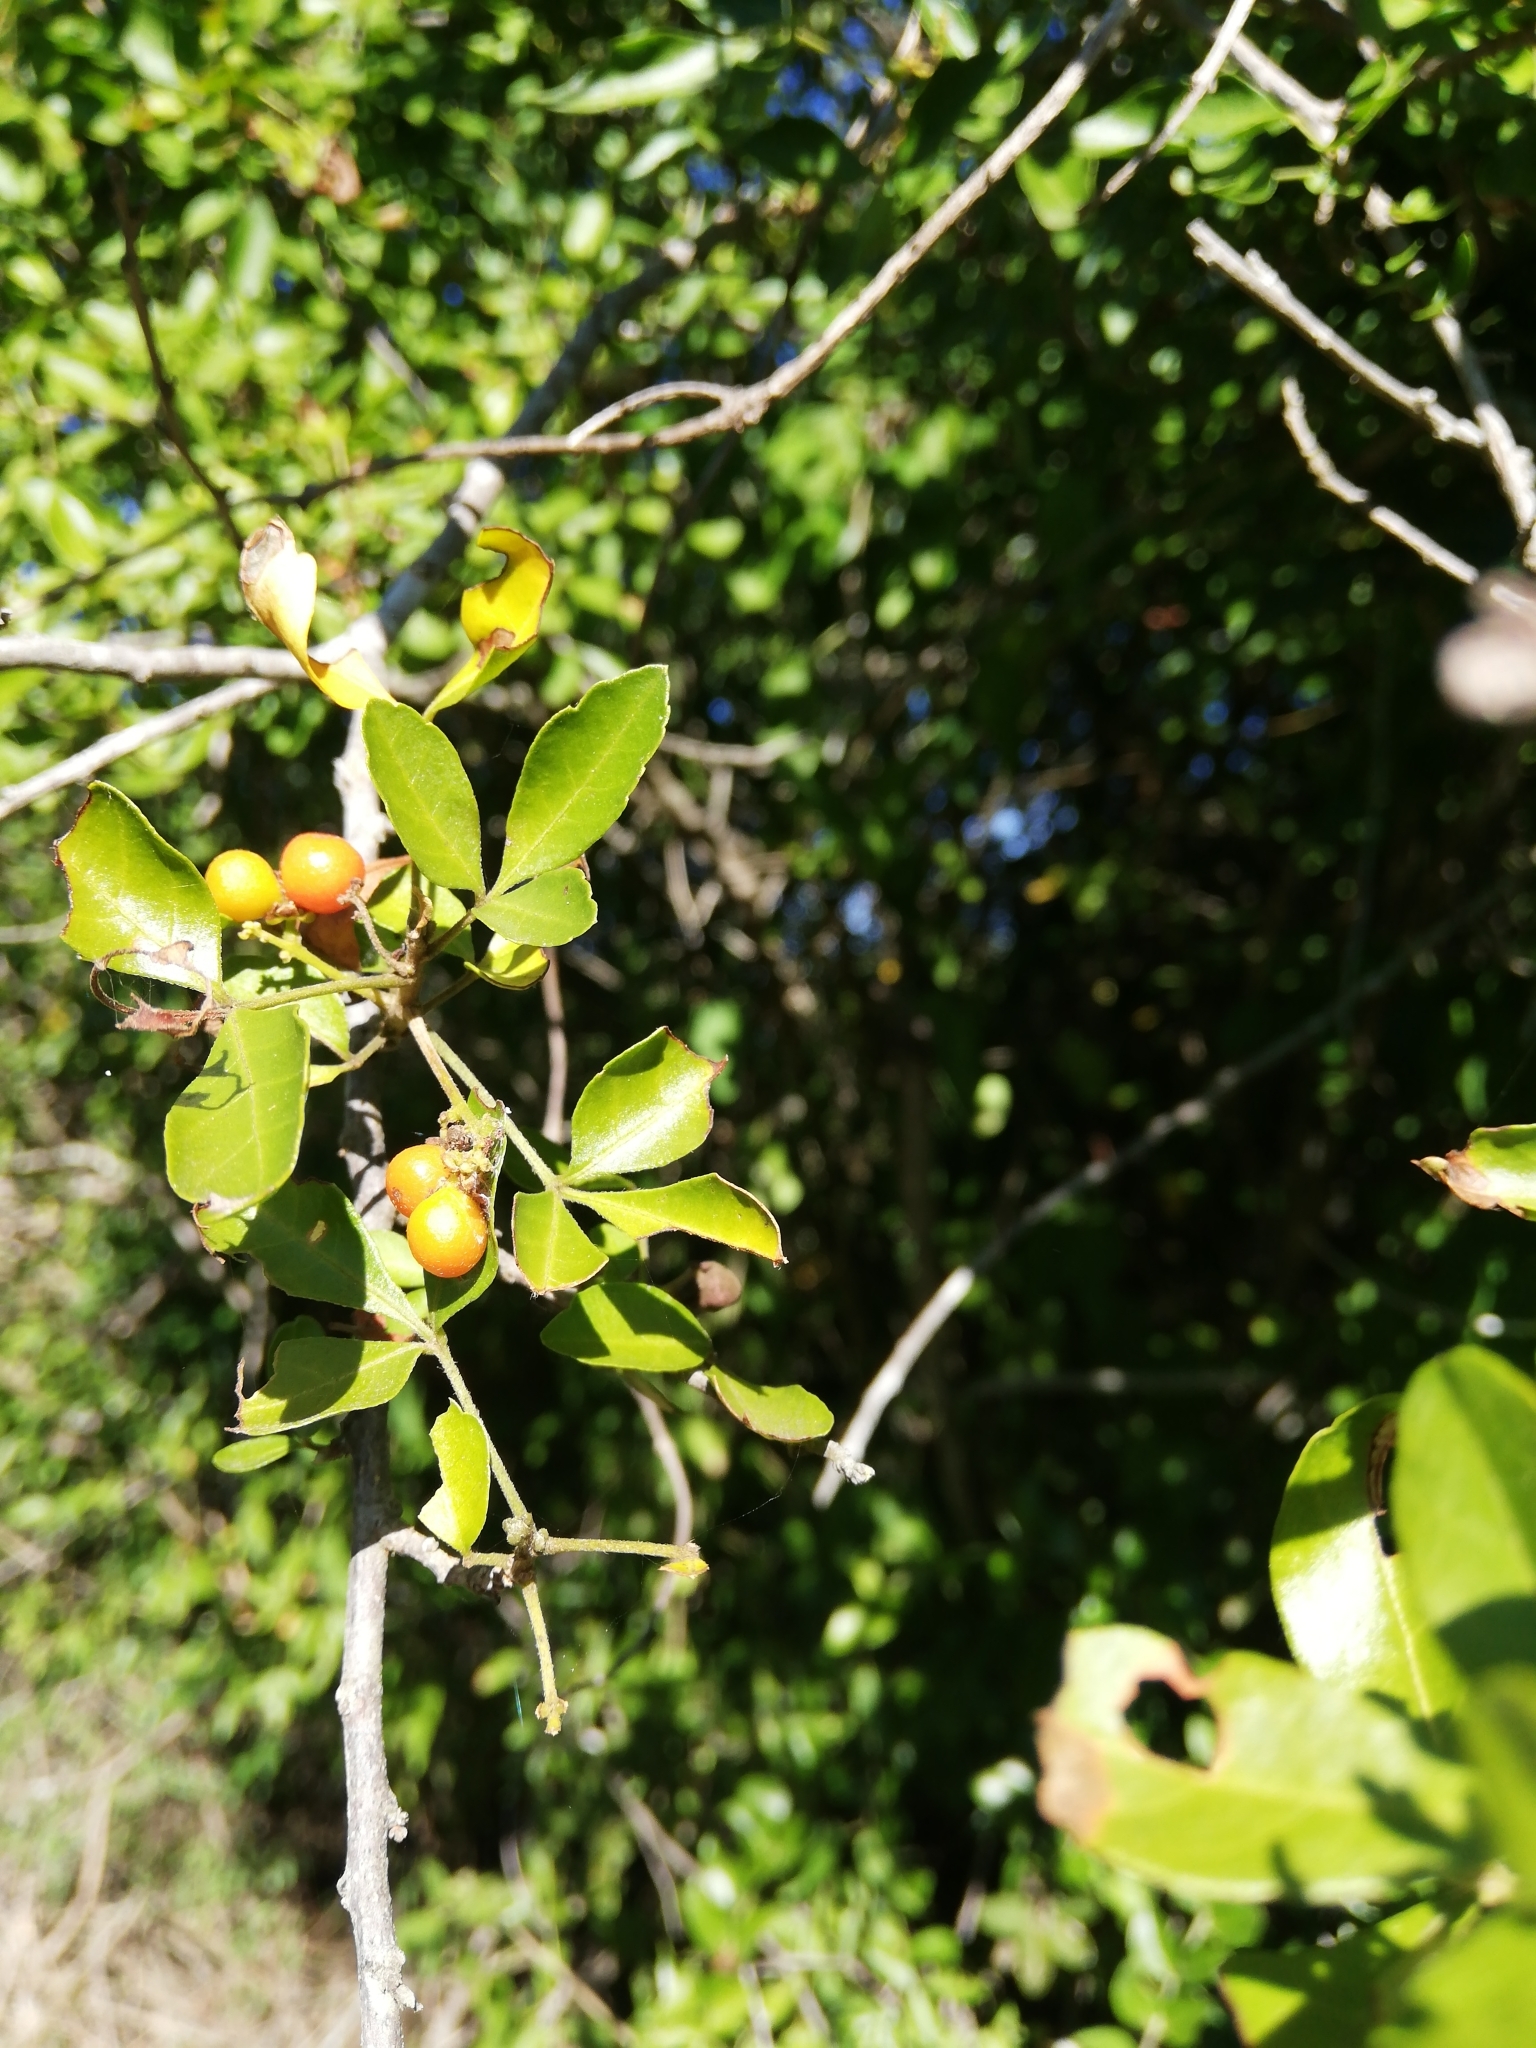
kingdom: Plantae
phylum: Tracheophyta
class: Magnoliopsida
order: Sapindales
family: Sapindaceae
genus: Allophylus
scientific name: Allophylus decipiens
